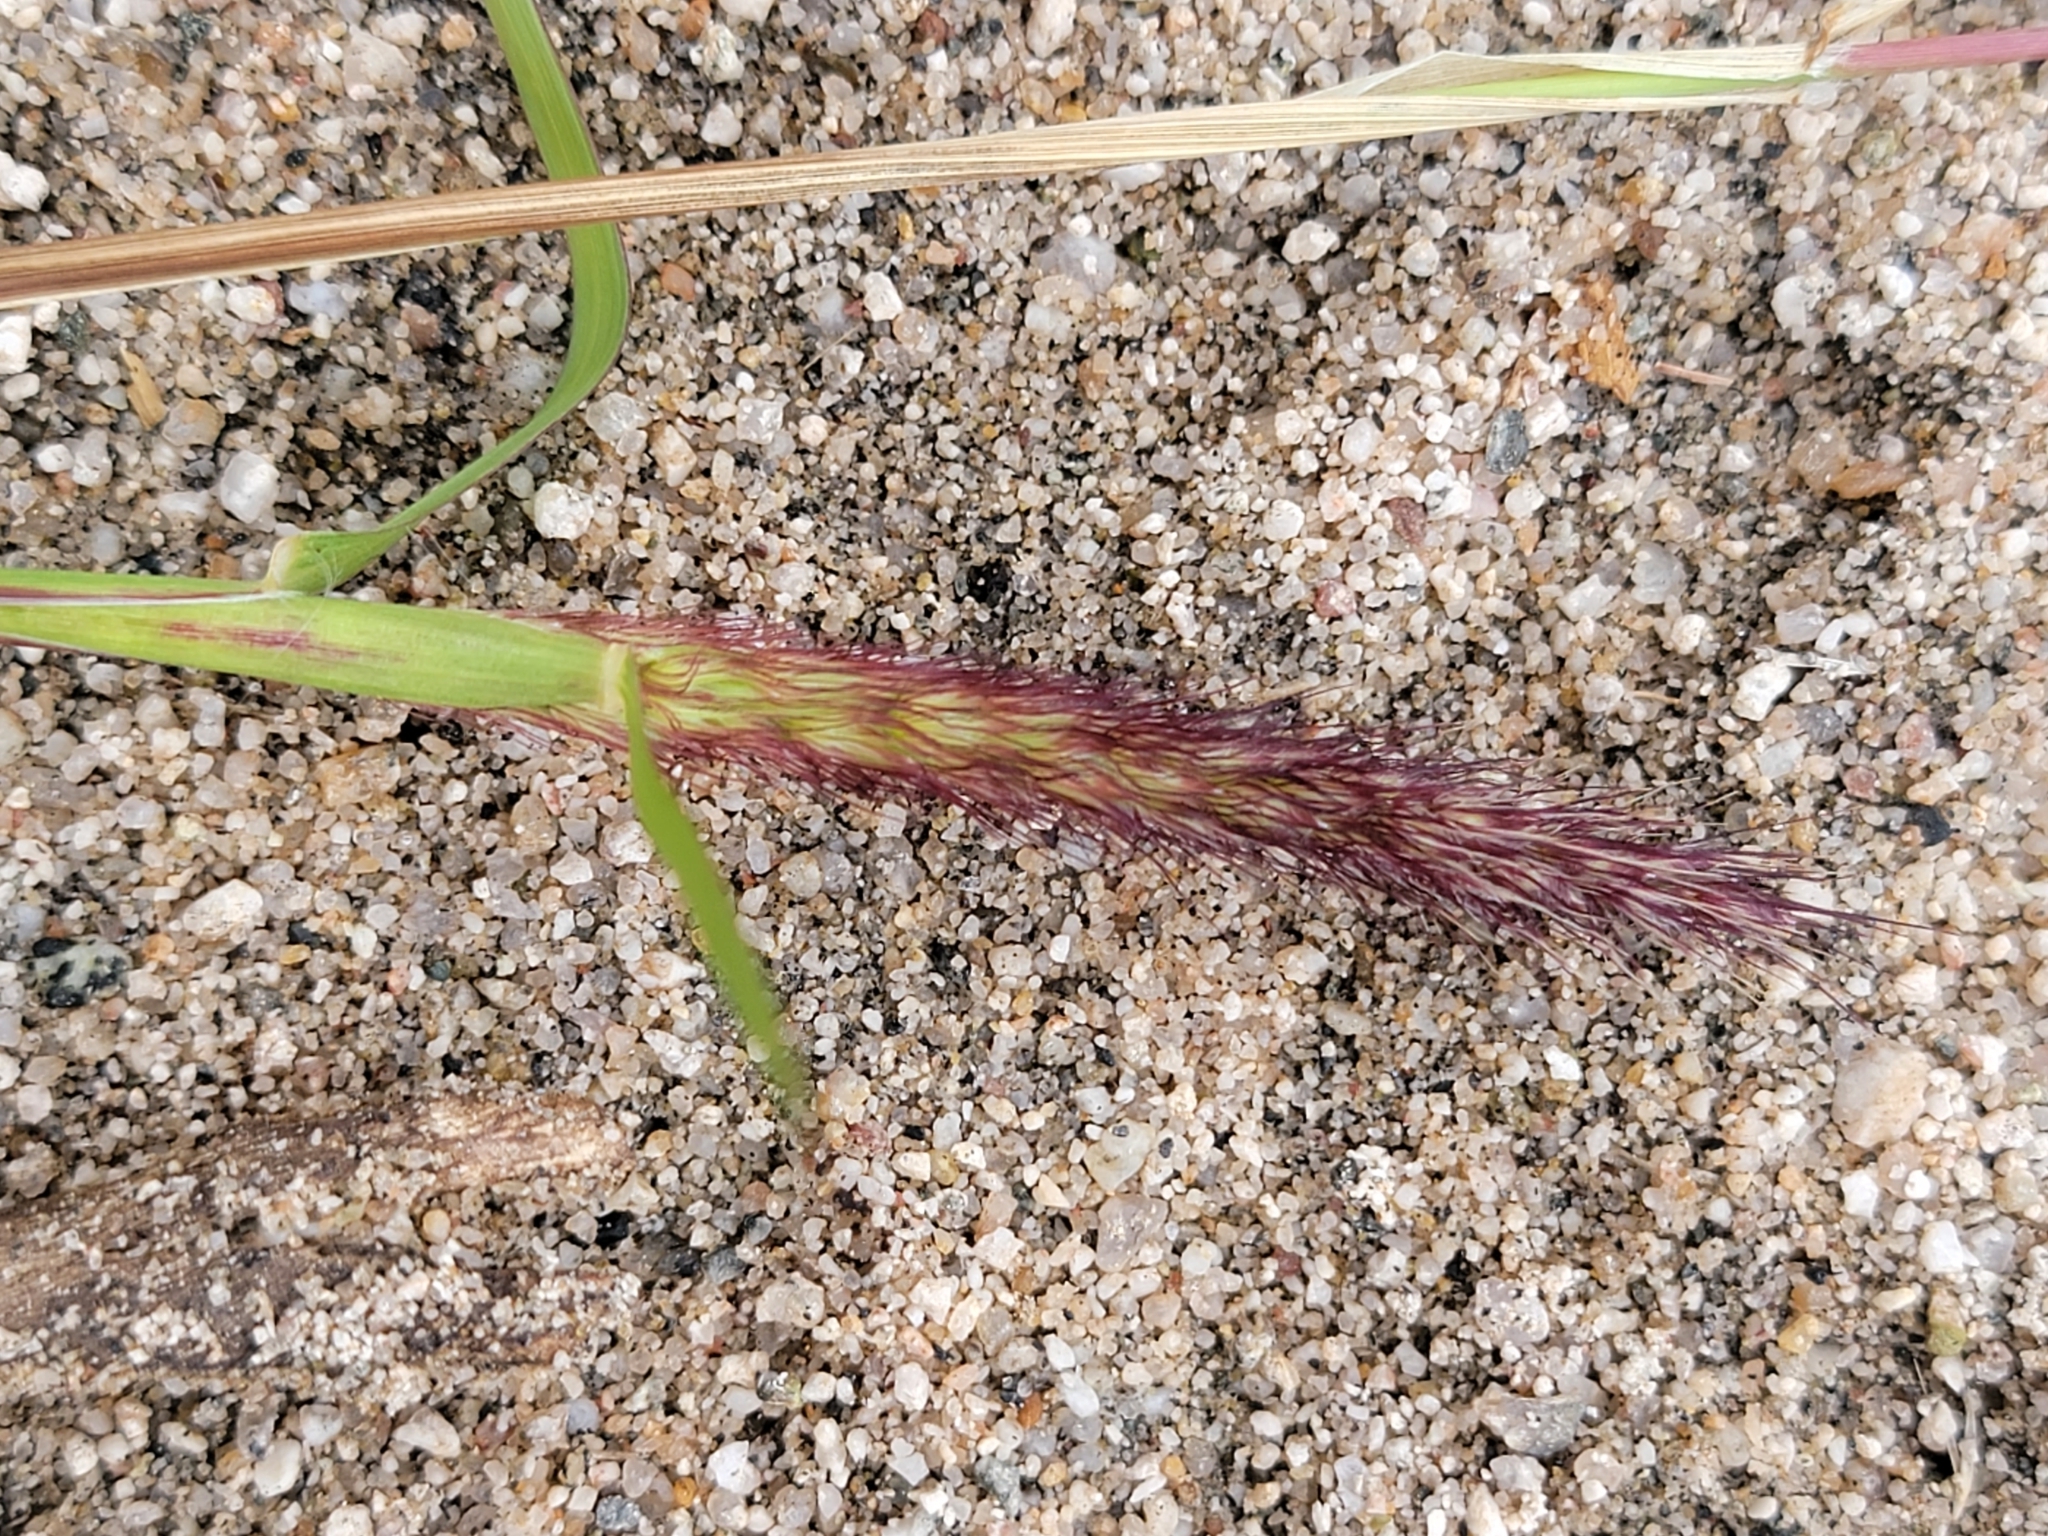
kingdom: Plantae
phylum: Tracheophyta
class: Liliopsida
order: Poales
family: Poaceae
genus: Cenchrus
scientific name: Cenchrus ciliaris
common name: Buffelgrass
